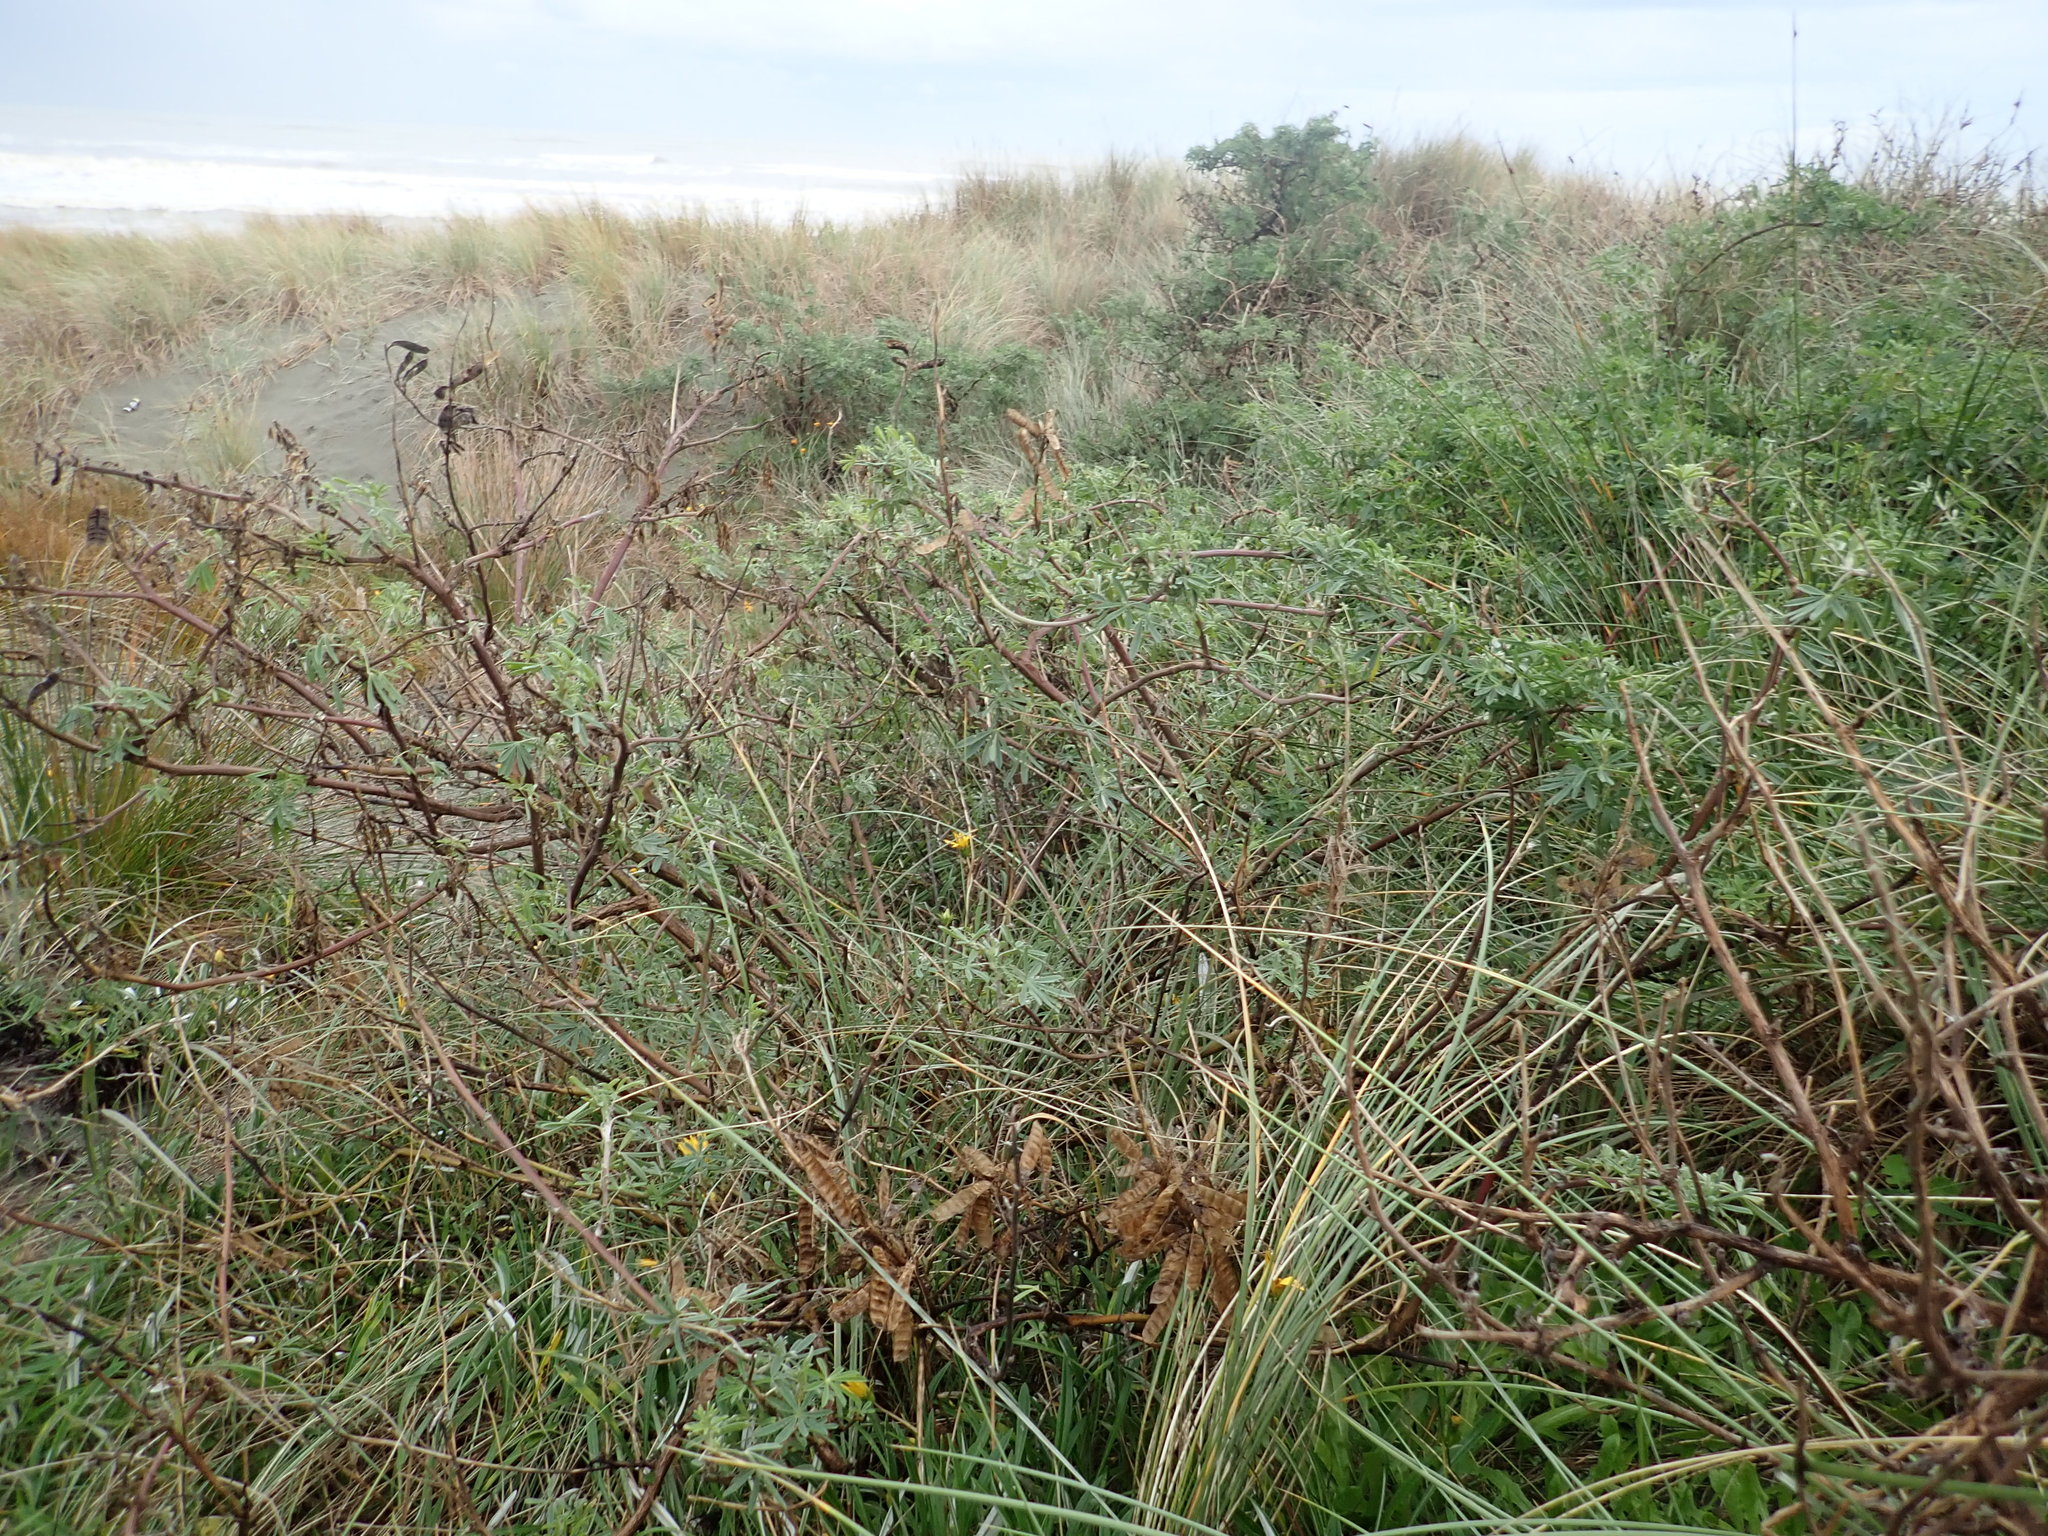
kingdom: Plantae
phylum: Tracheophyta
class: Magnoliopsida
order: Fabales
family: Fabaceae
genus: Lupinus
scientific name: Lupinus arboreus
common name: Yellow bush lupine
